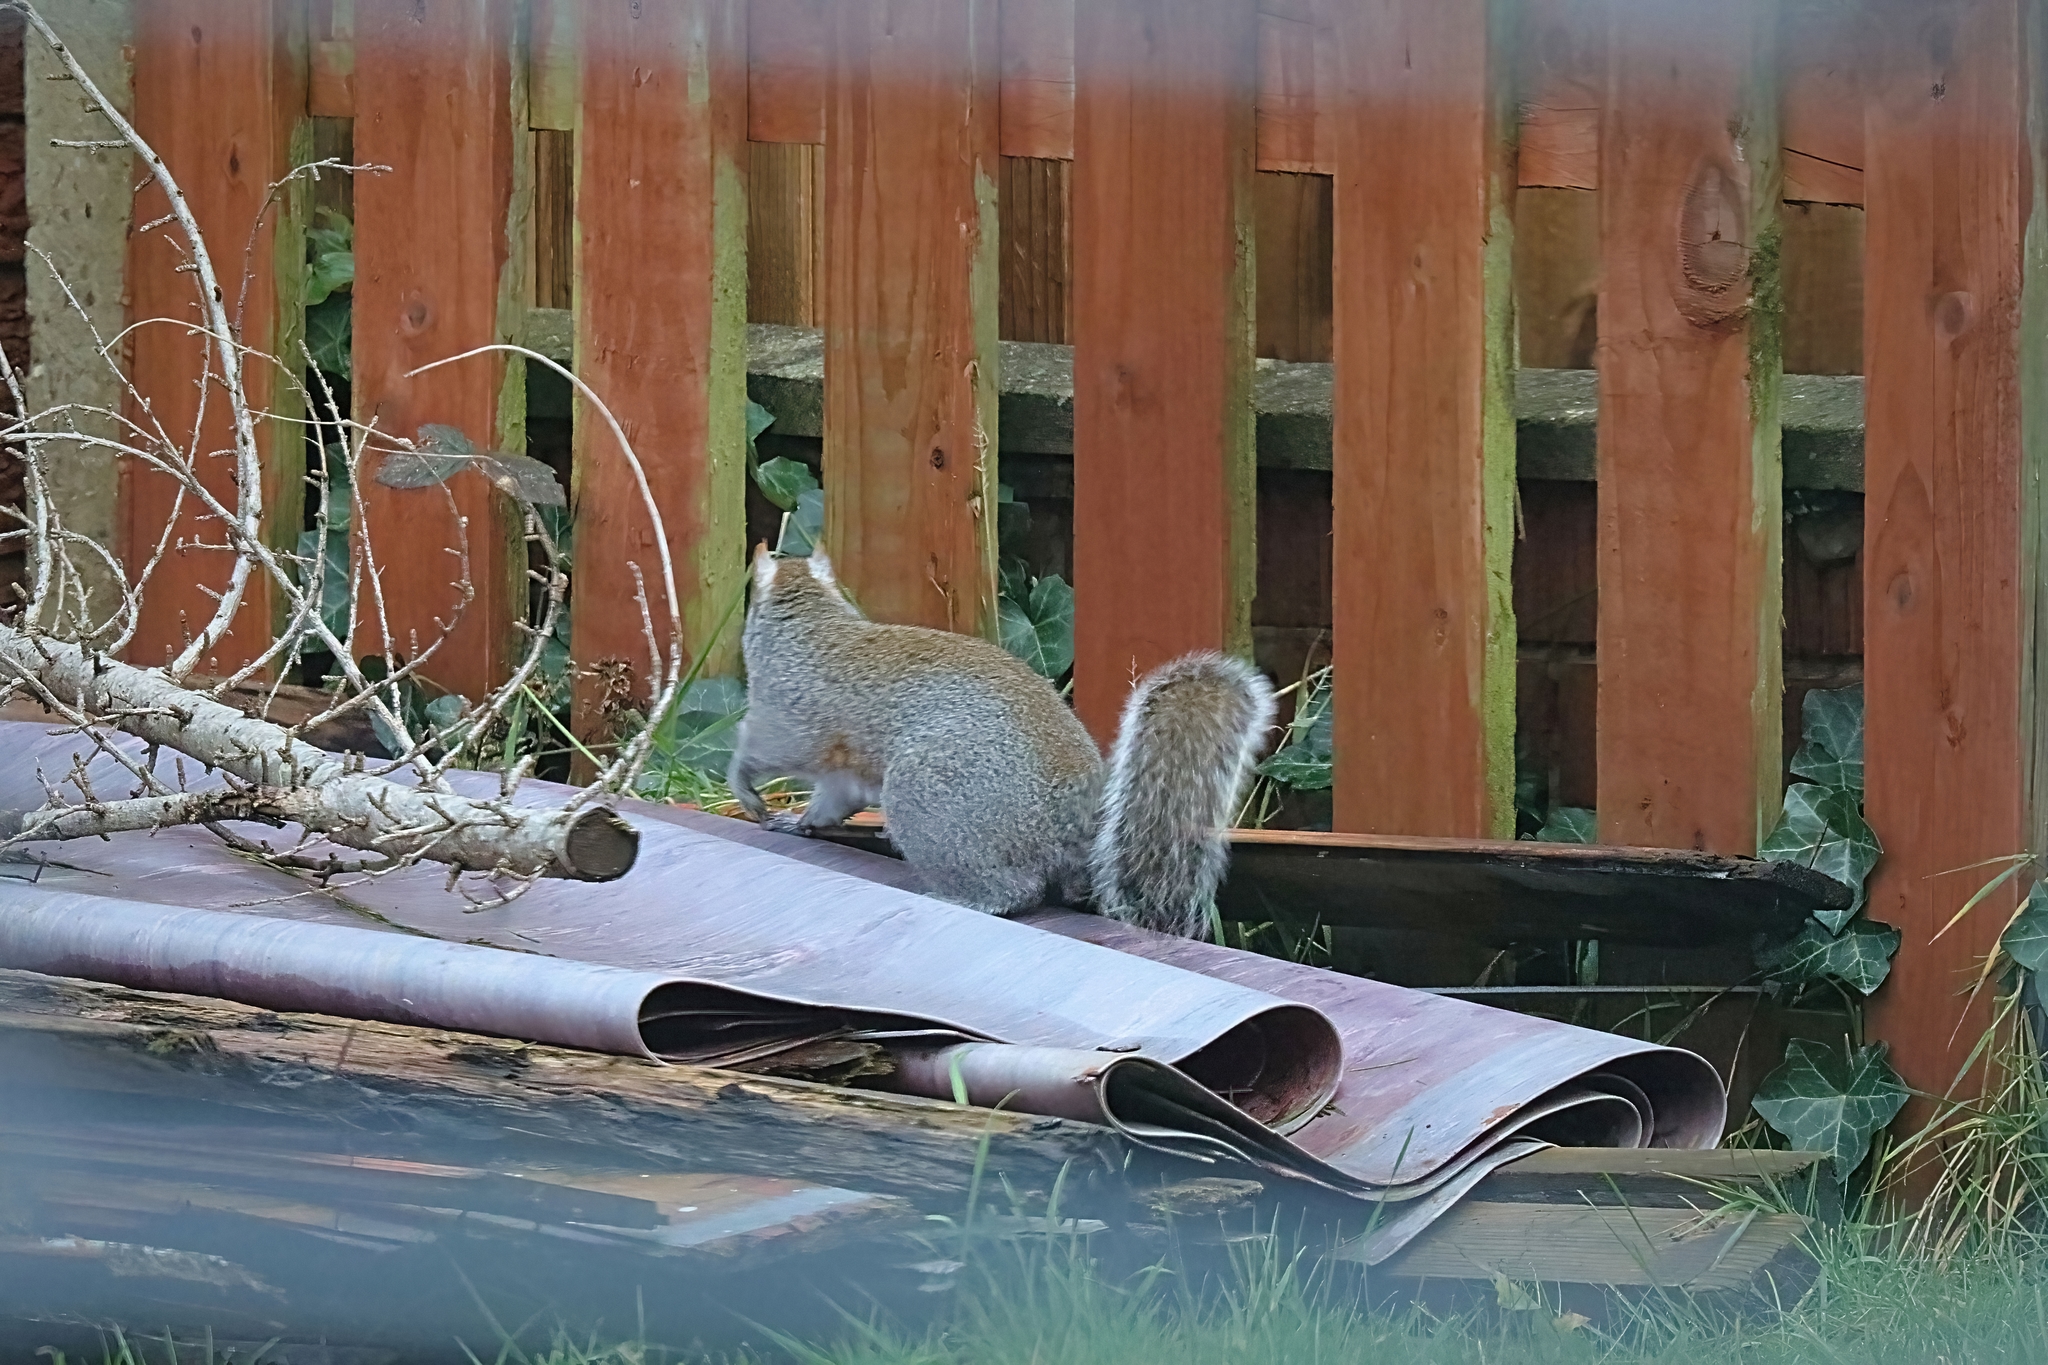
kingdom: Animalia
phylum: Chordata
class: Mammalia
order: Rodentia
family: Sciuridae
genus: Sciurus
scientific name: Sciurus carolinensis
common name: Eastern gray squirrel
